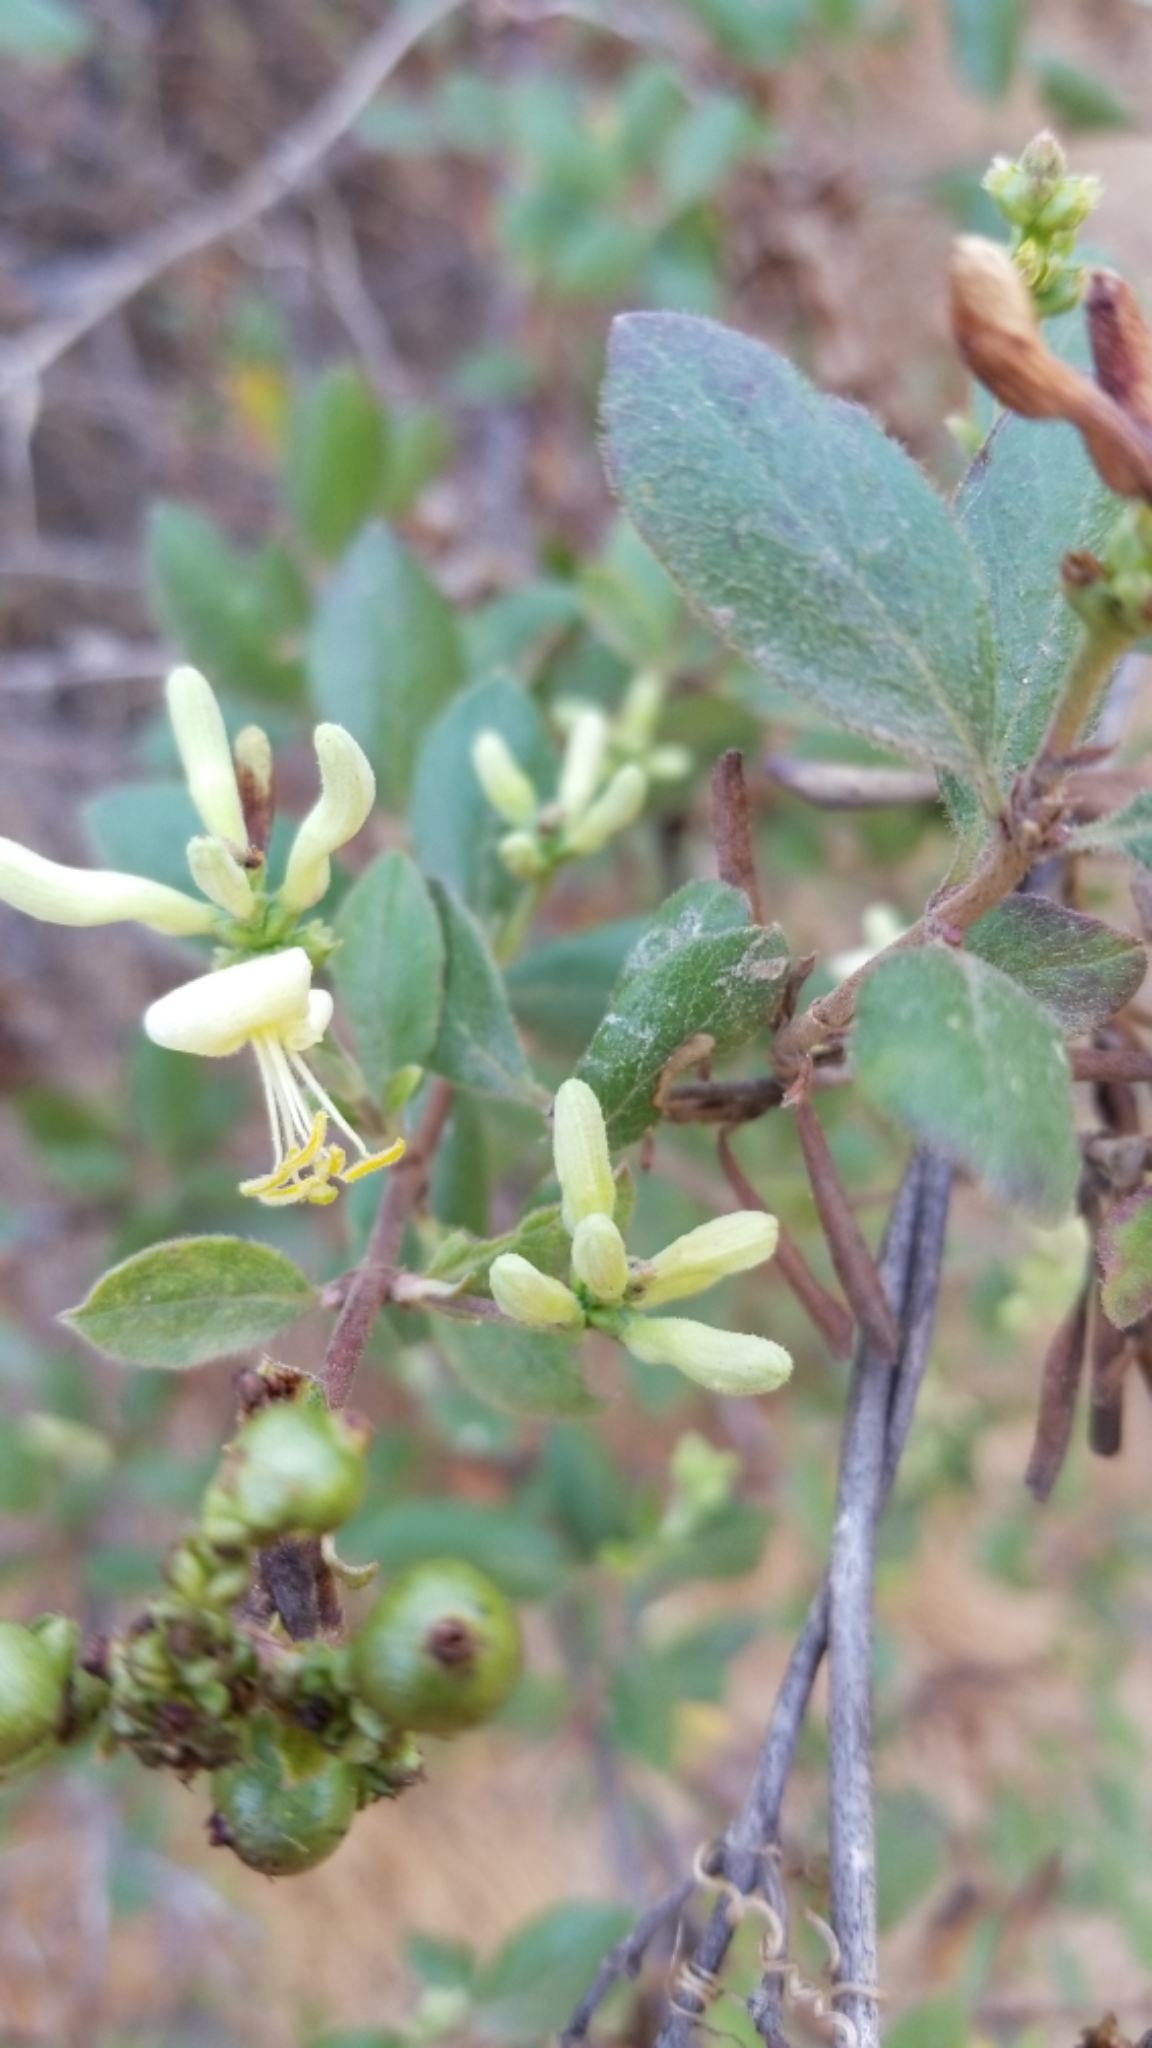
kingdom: Plantae
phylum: Tracheophyta
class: Magnoliopsida
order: Dipsacales
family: Caprifoliaceae
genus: Lonicera
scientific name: Lonicera subspicata
